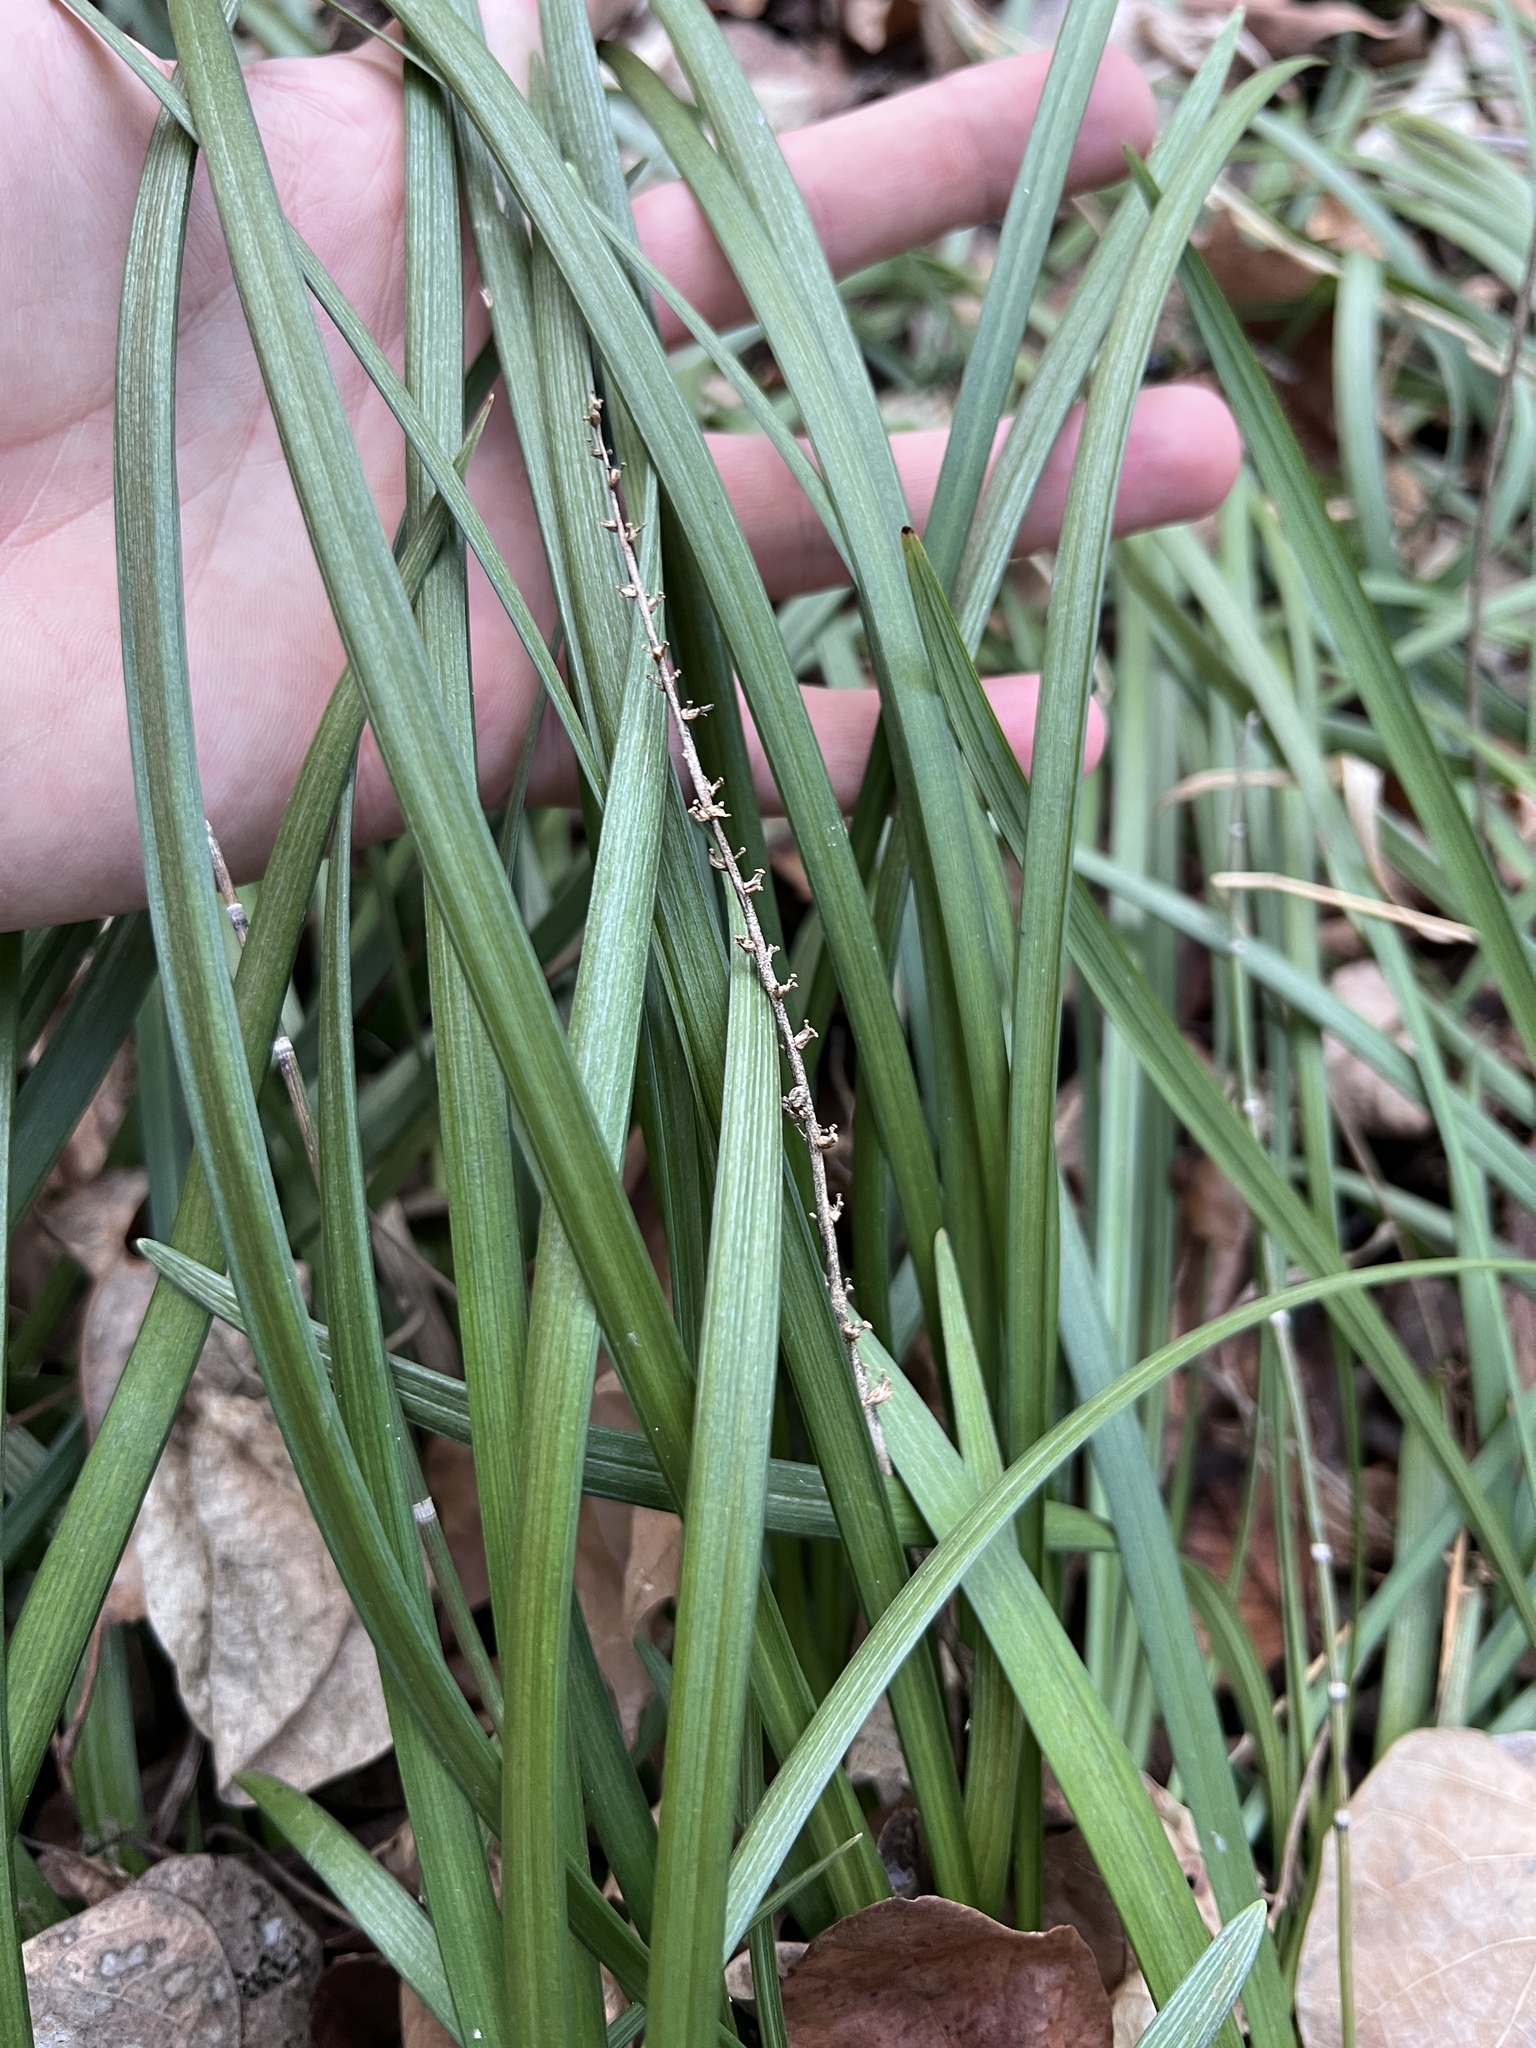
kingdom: Plantae
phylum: Tracheophyta
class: Liliopsida
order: Asparagales
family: Asparagaceae
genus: Liriope
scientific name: Liriope spicata
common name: Creeping liriope
